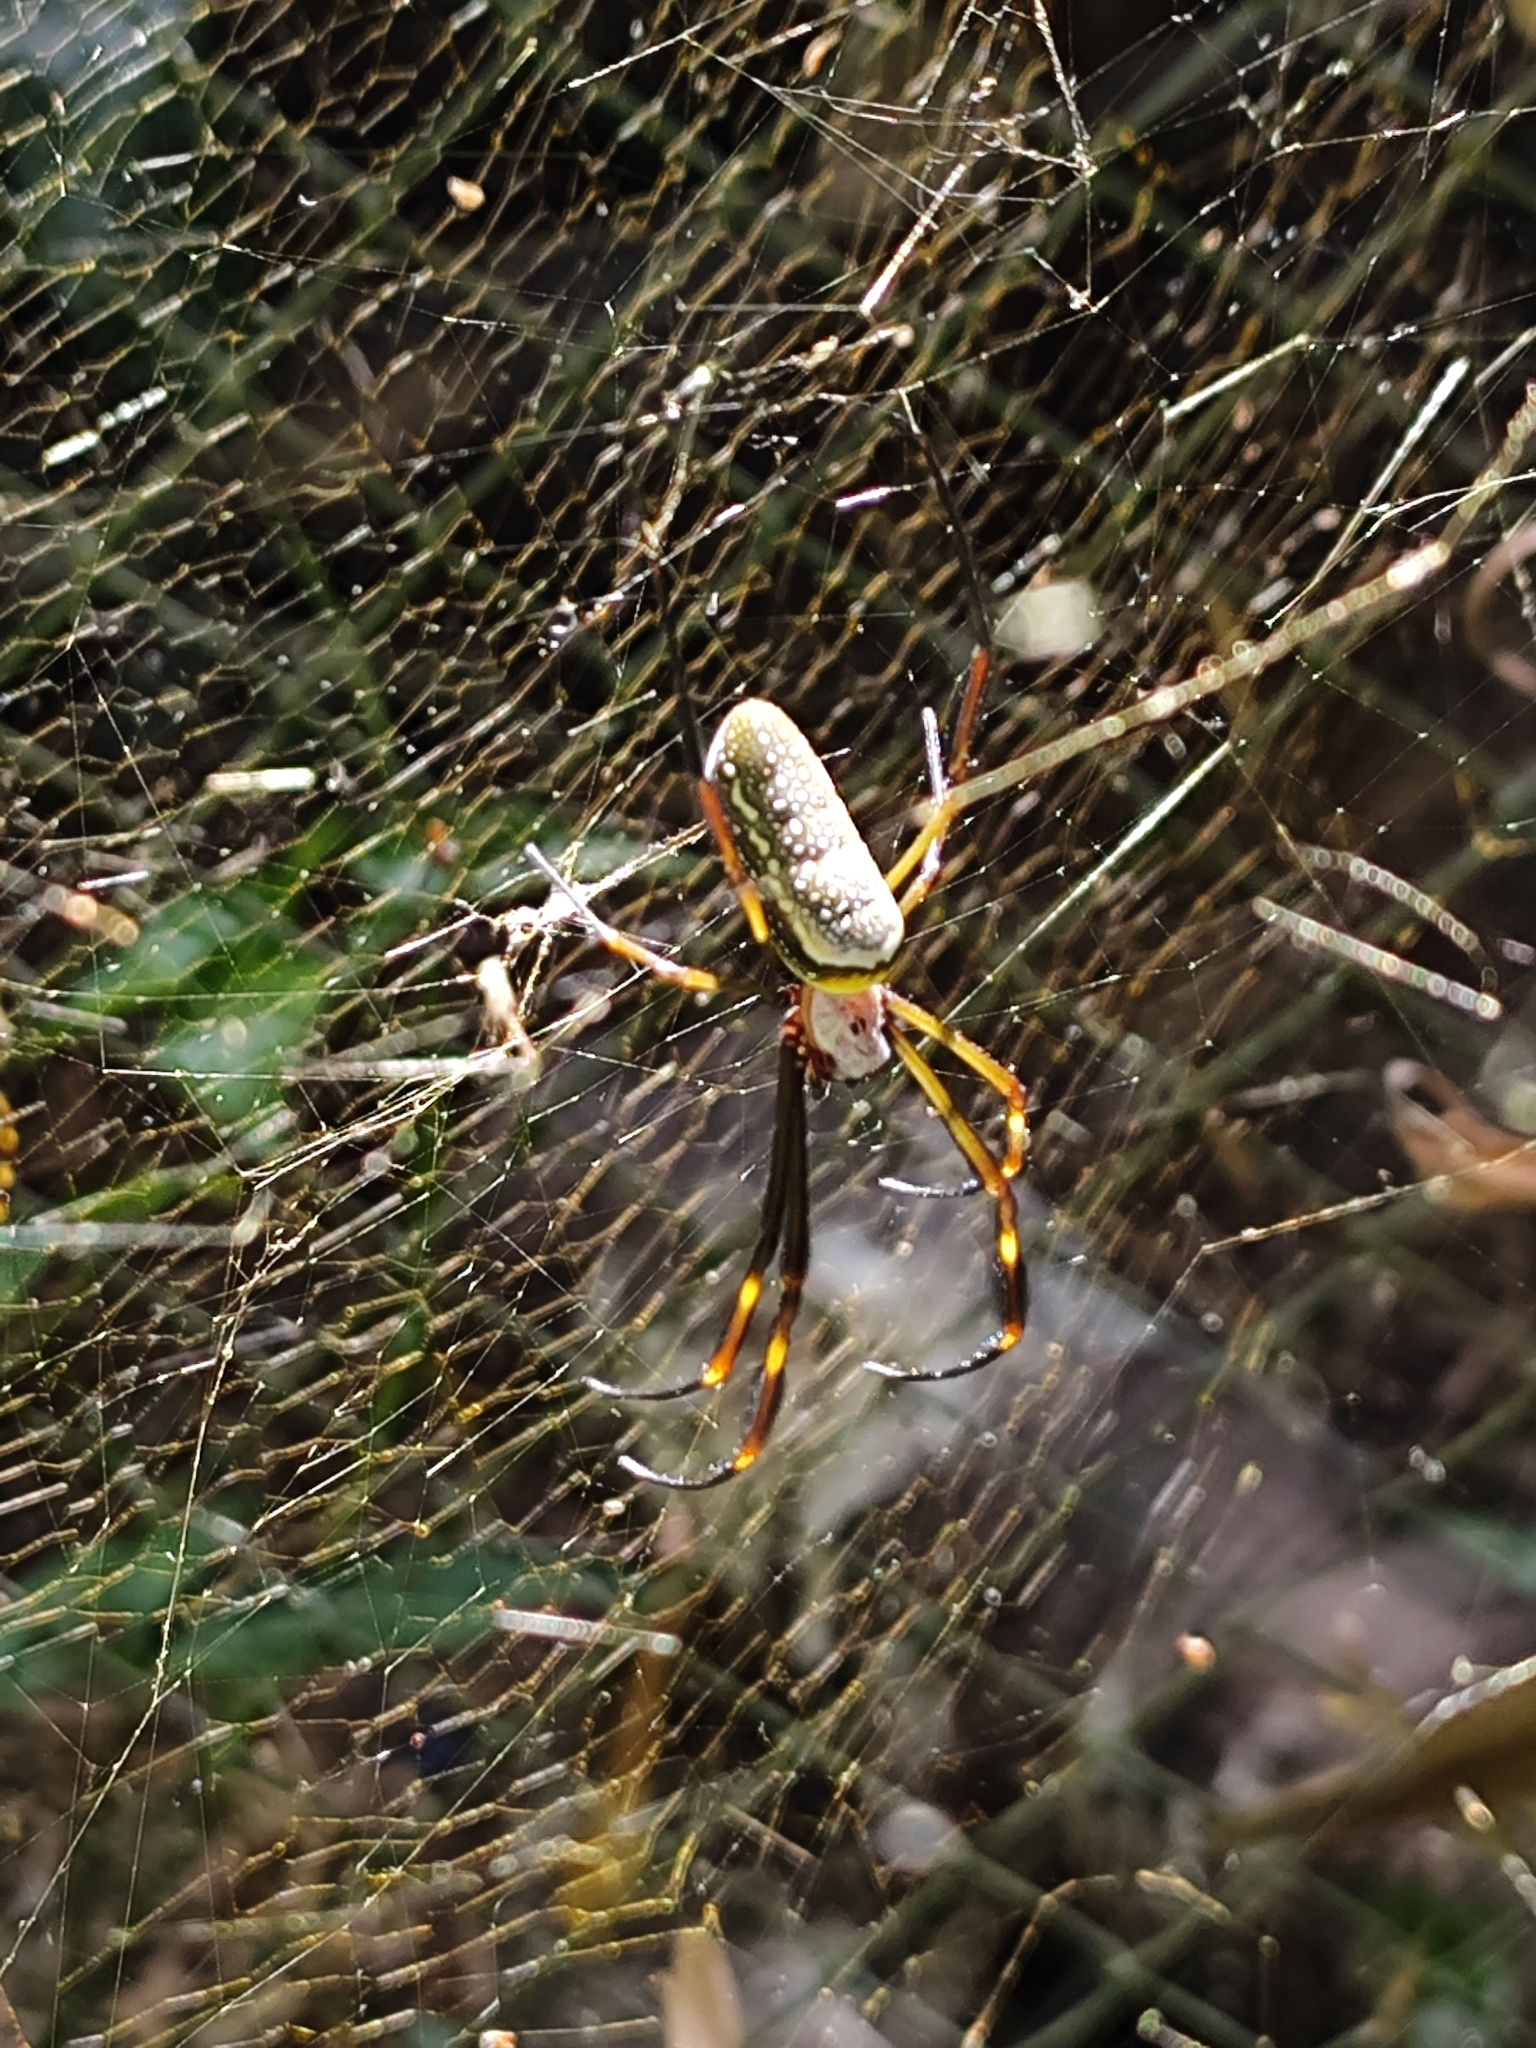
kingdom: Animalia
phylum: Arthropoda
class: Arachnida
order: Araneae
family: Araneidae
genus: Trichonephila
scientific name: Trichonephila clavipes
